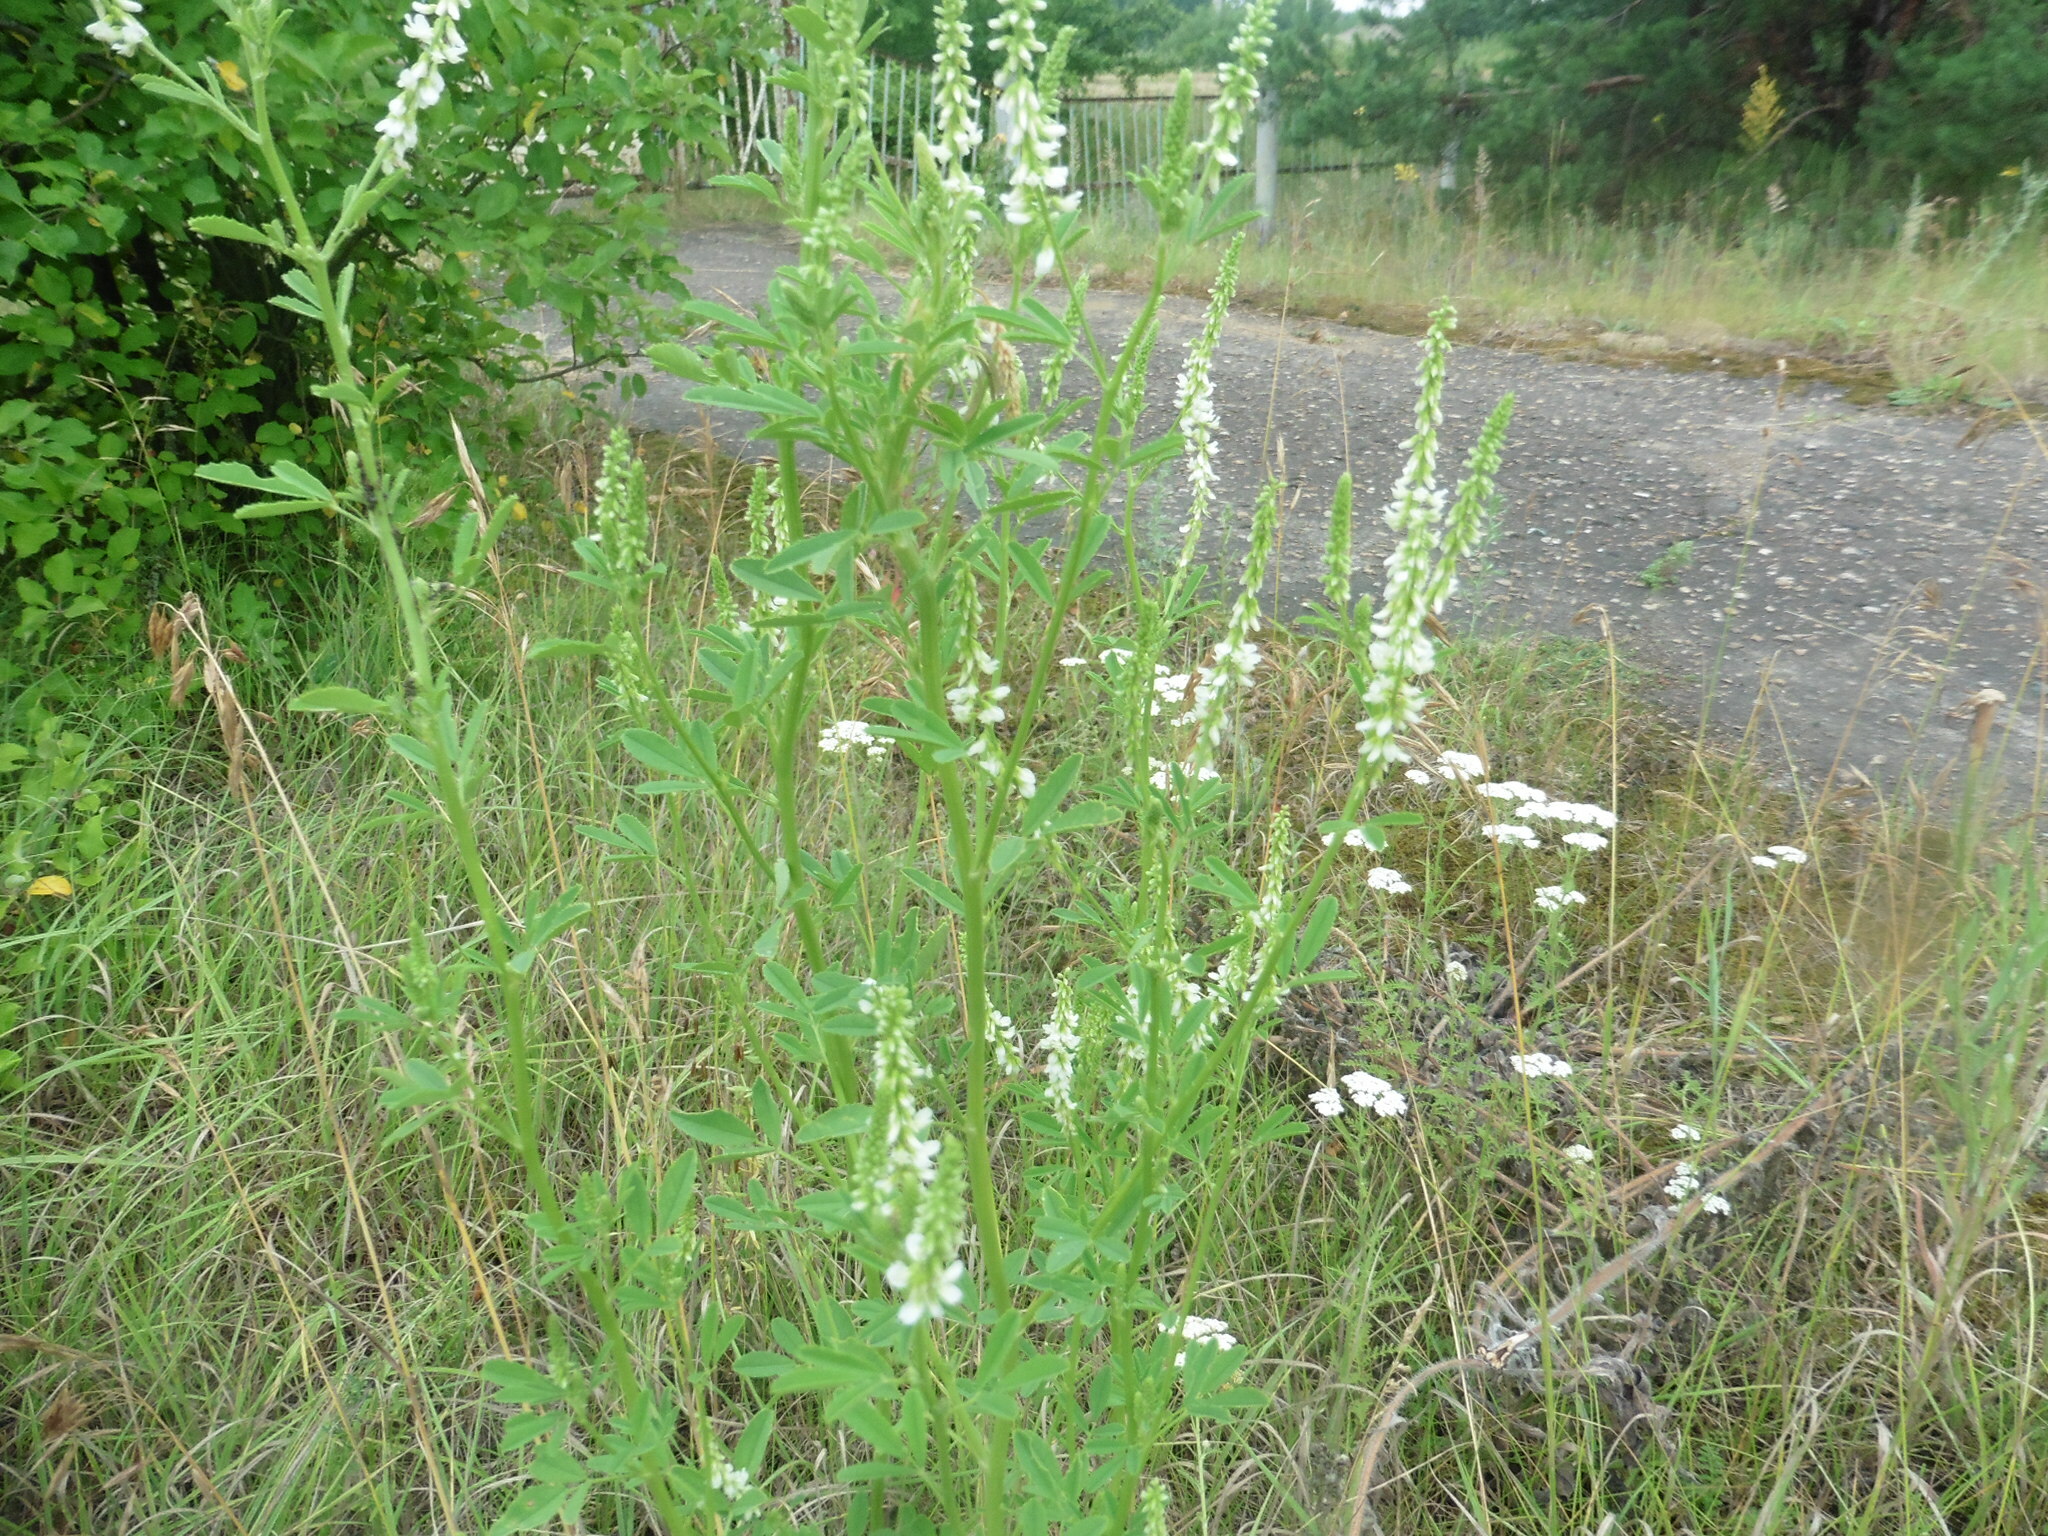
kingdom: Plantae
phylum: Tracheophyta
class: Magnoliopsida
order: Fabales
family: Fabaceae
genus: Melilotus
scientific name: Melilotus albus
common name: White melilot
